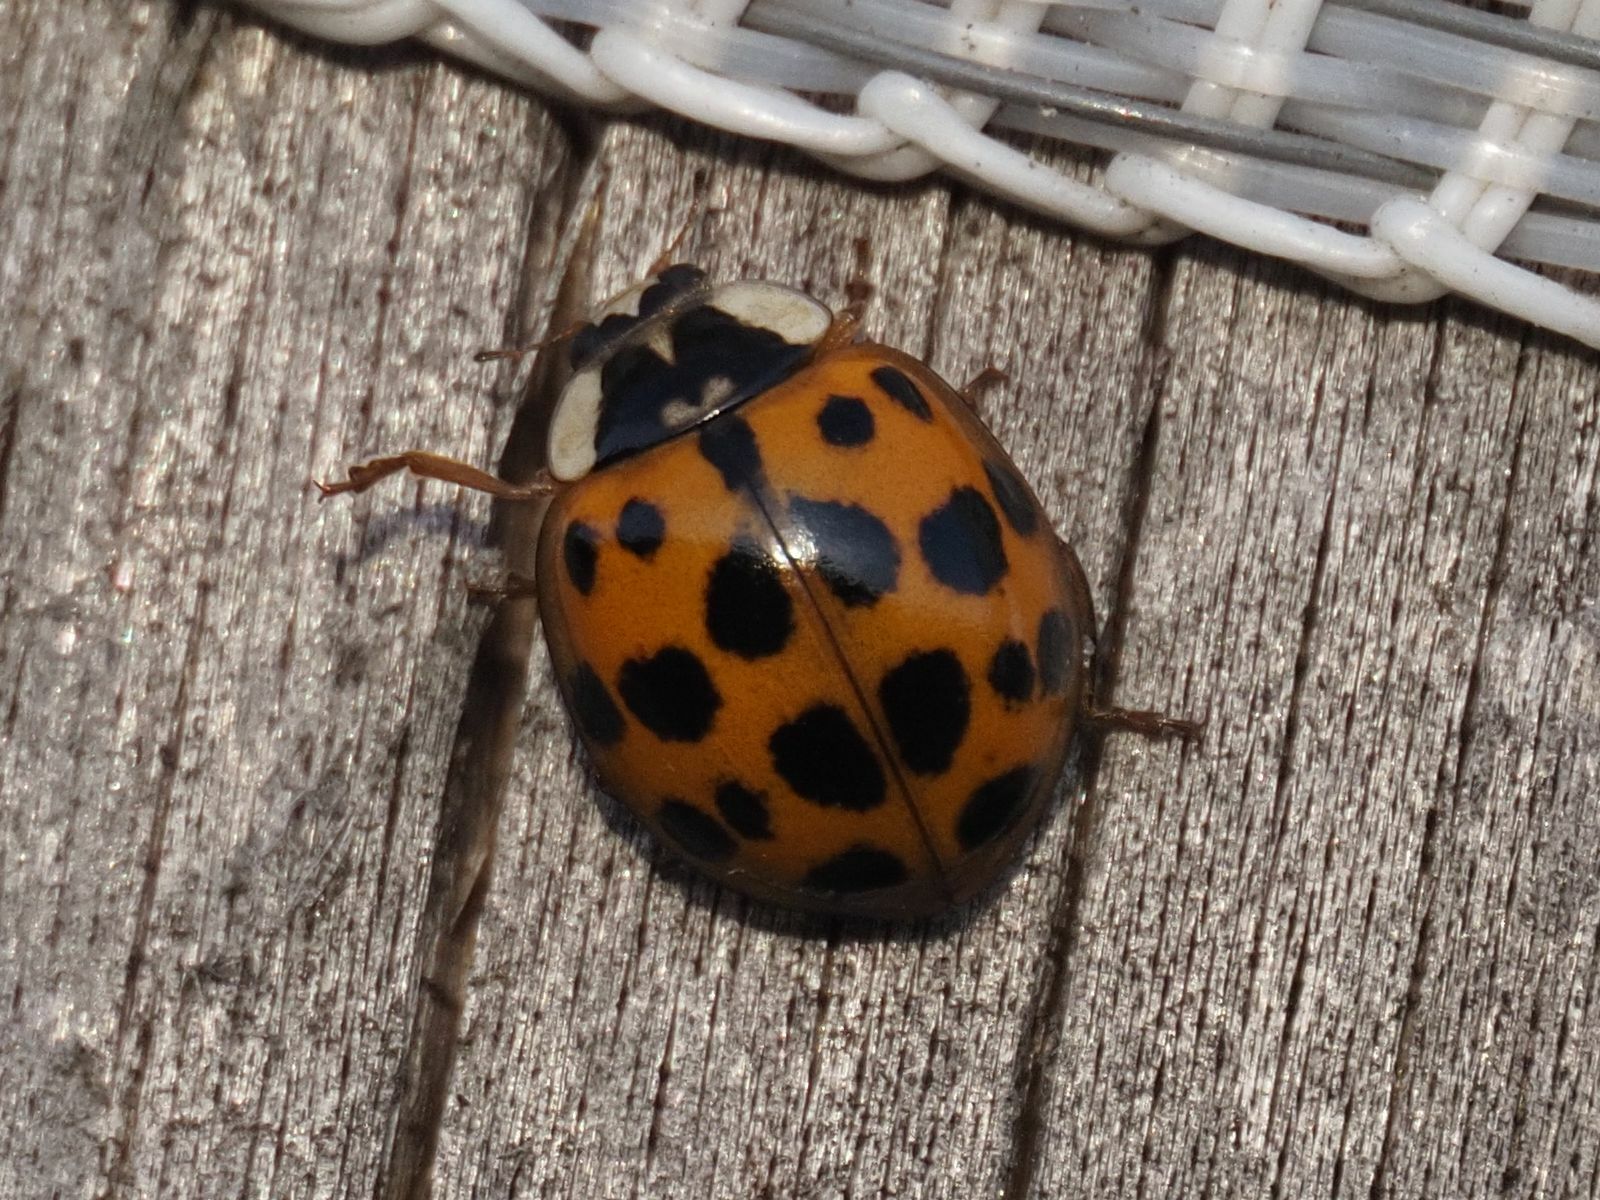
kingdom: Animalia
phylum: Arthropoda
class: Insecta
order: Coleoptera
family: Coccinellidae
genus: Harmonia
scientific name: Harmonia axyridis
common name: Harlequin ladybird
